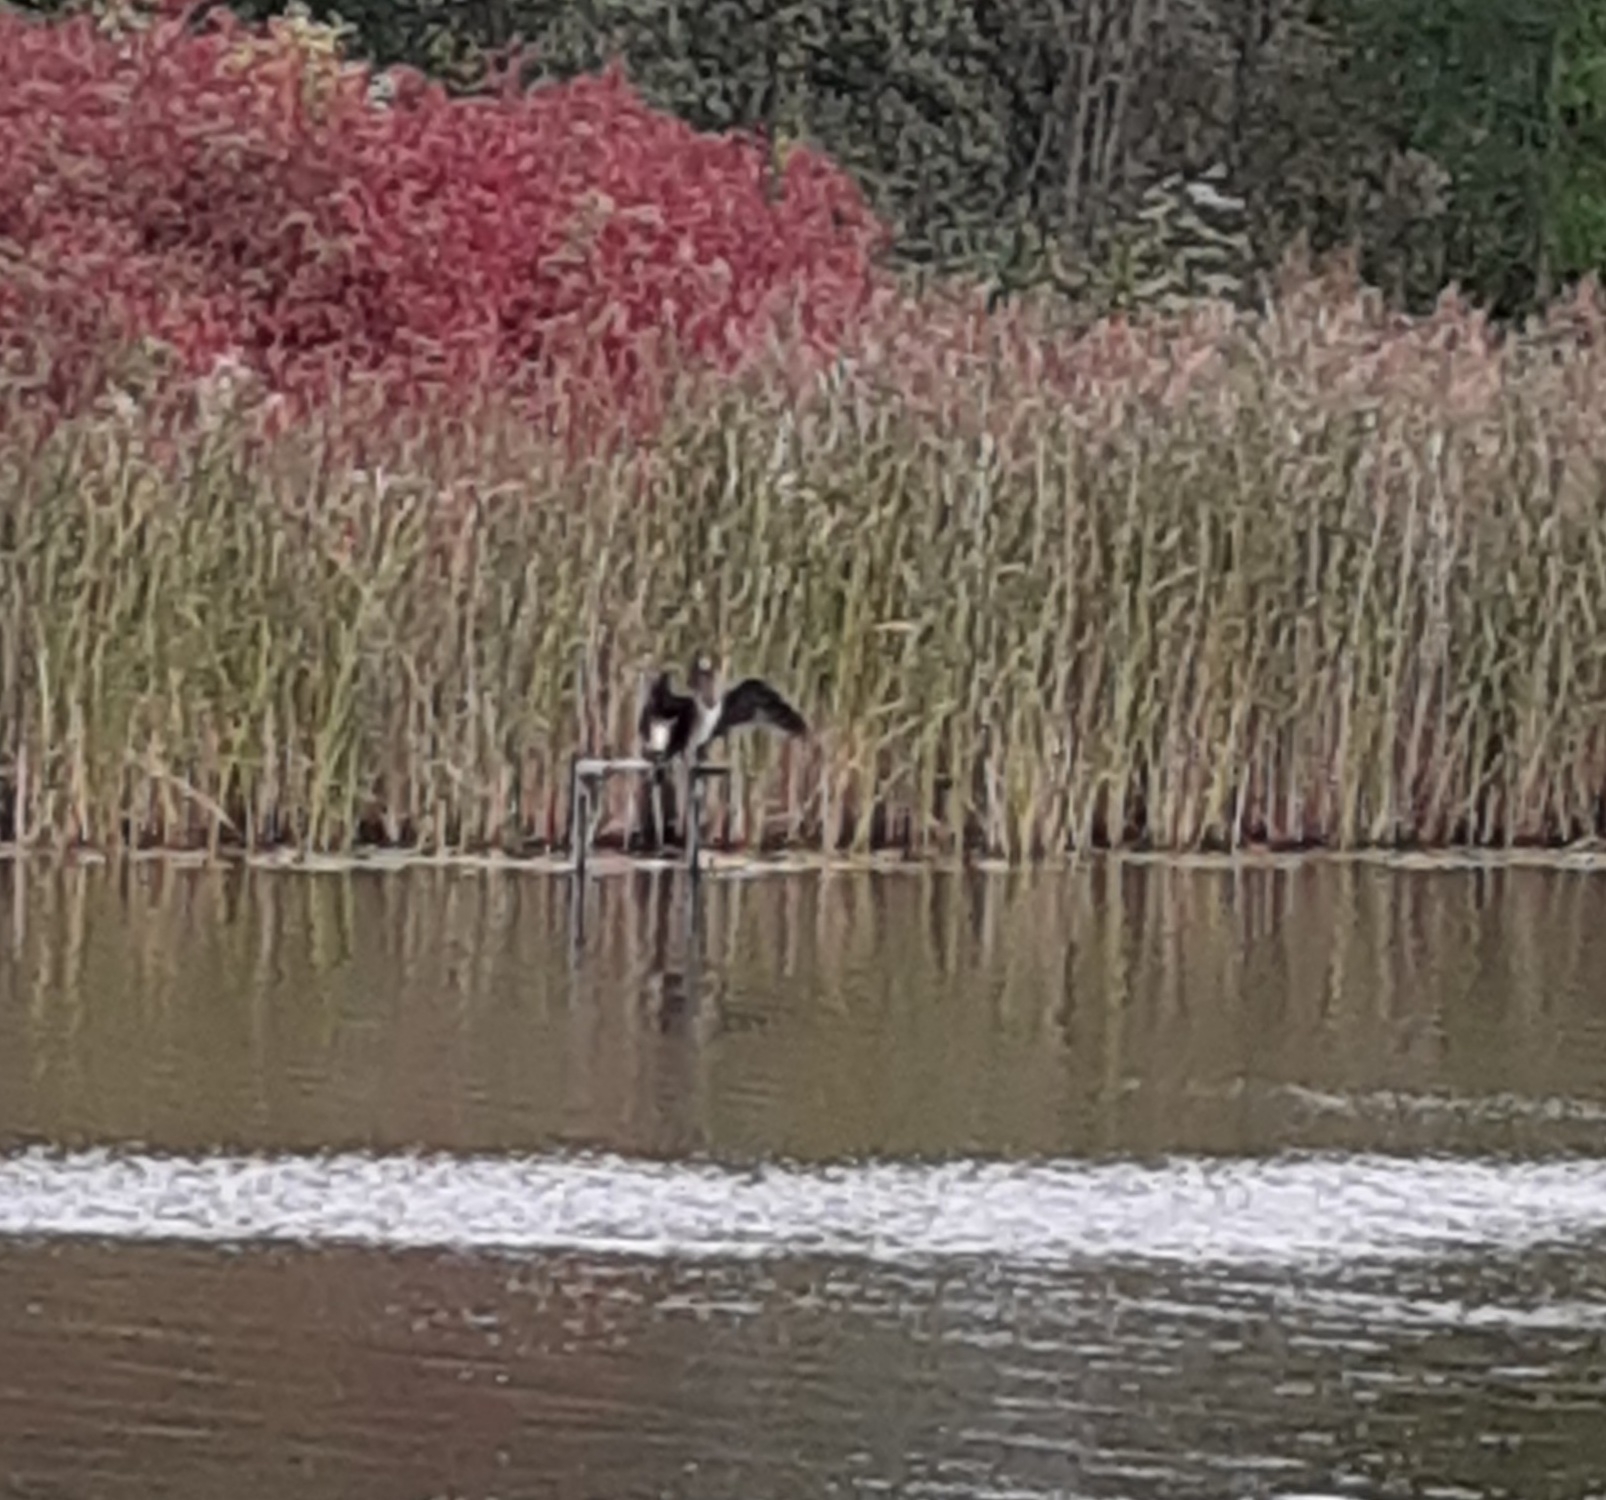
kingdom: Animalia
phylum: Chordata
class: Aves
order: Suliformes
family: Phalacrocoracidae
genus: Phalacrocorax
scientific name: Phalacrocorax carbo
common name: Great cormorant
